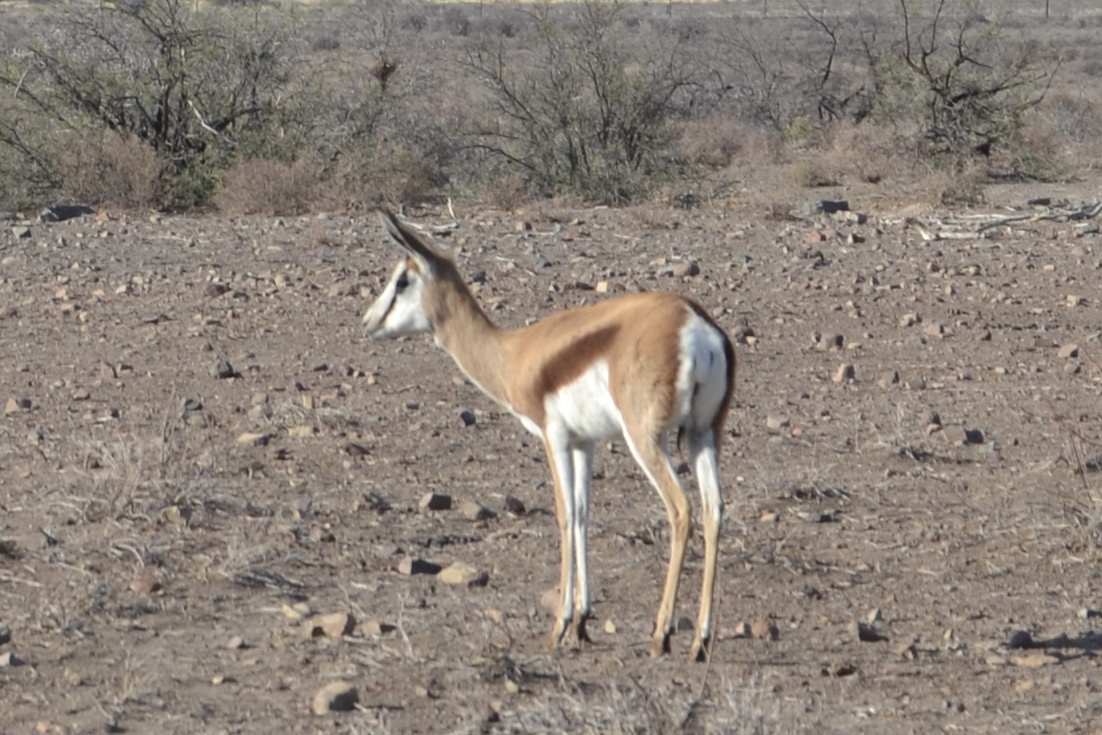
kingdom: Animalia
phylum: Chordata
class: Mammalia
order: Artiodactyla
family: Bovidae
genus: Antidorcas
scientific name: Antidorcas marsupialis
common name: Springbok
